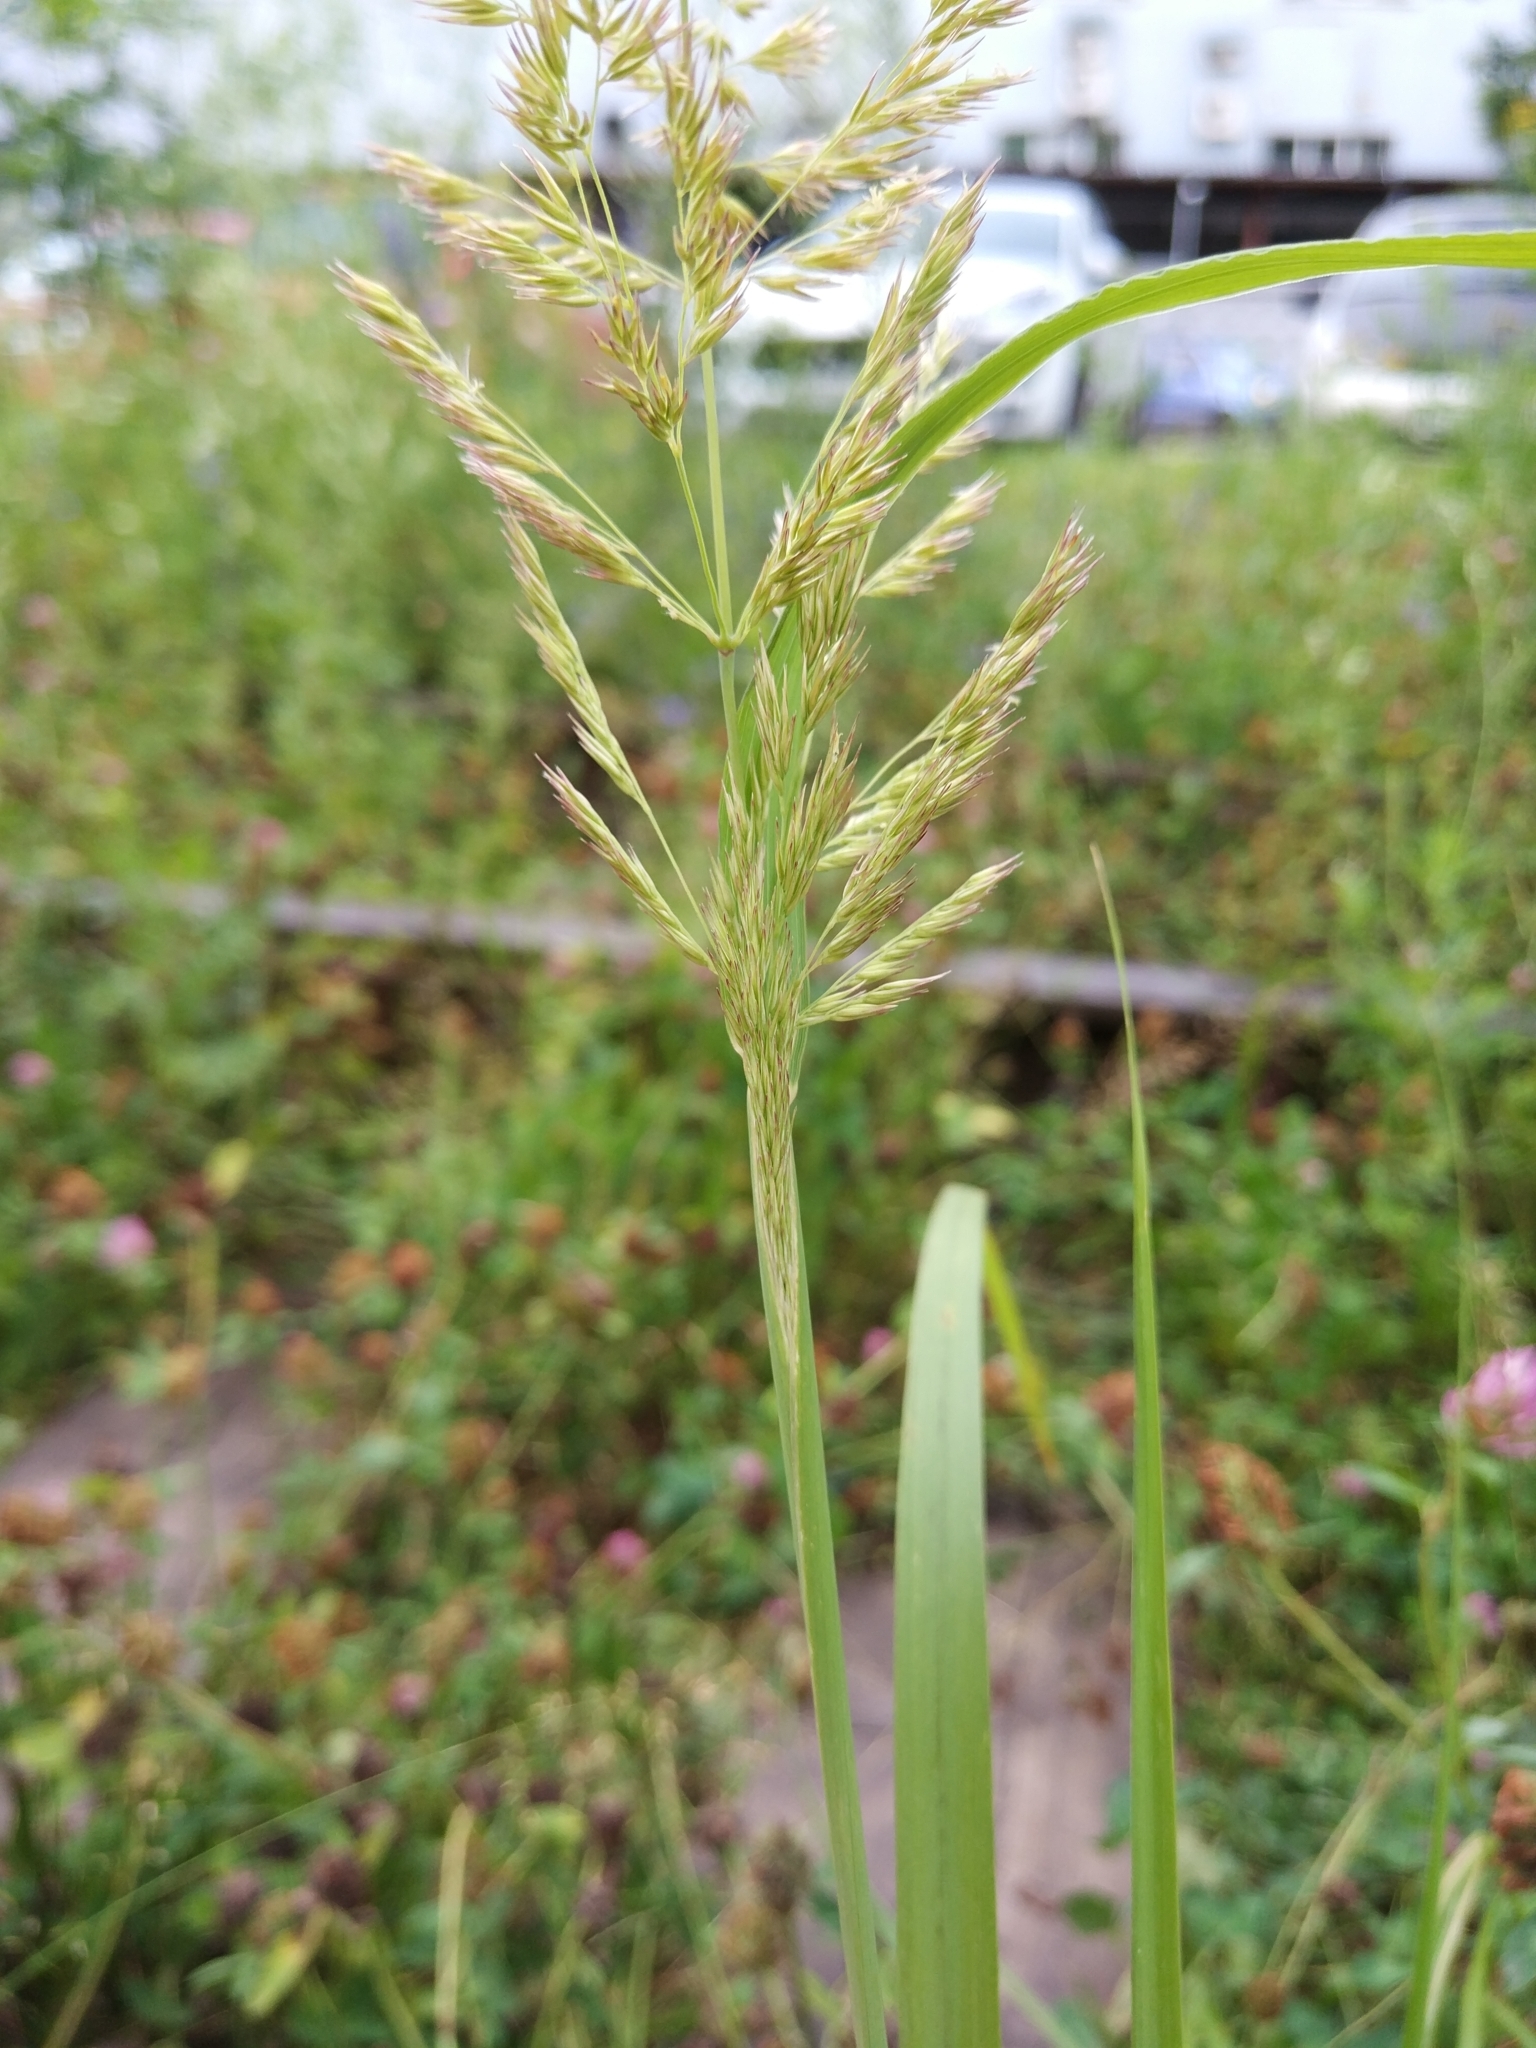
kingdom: Plantae
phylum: Tracheophyta
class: Liliopsida
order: Poales
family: Poaceae
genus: Calamagrostis
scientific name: Calamagrostis epigejos
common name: Wood small-reed
